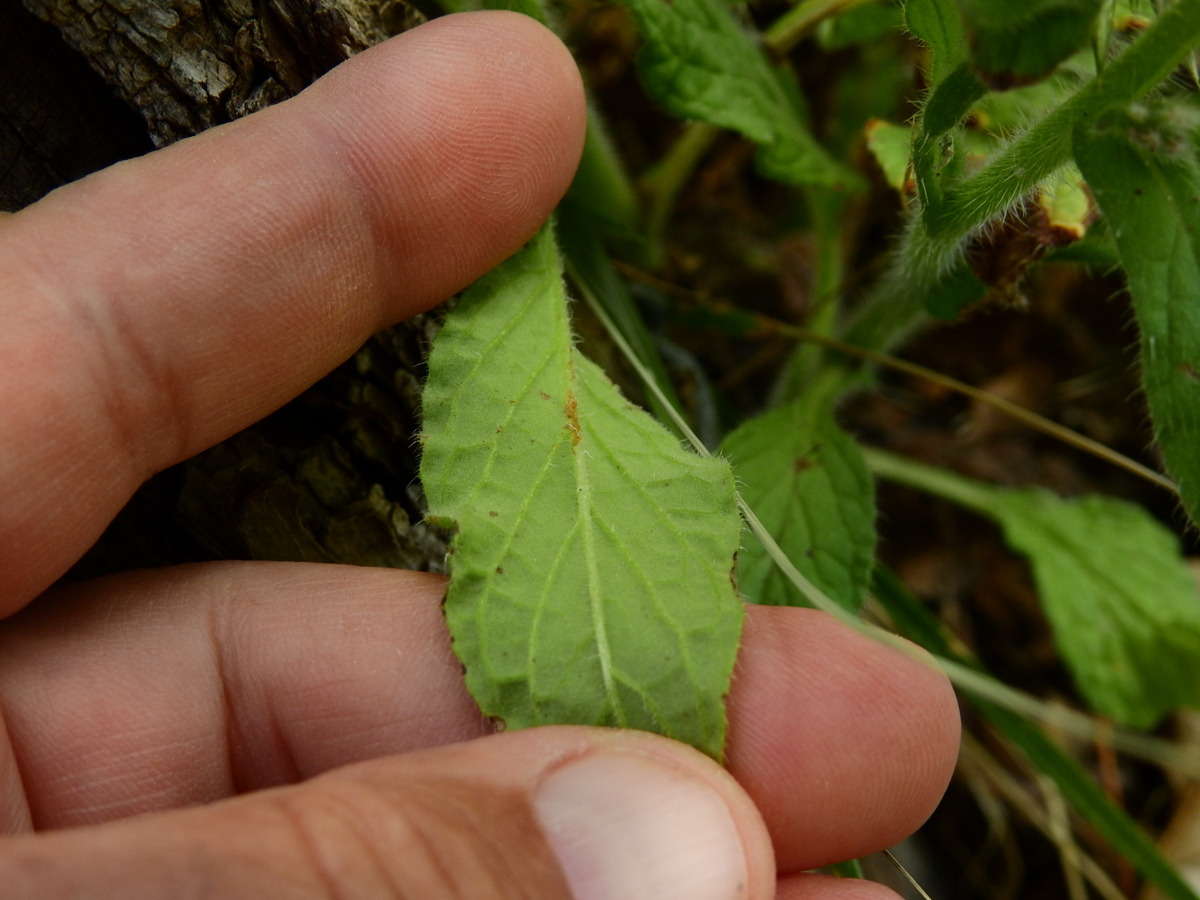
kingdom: Plantae
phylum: Tracheophyta
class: Magnoliopsida
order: Boraginales
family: Boraginaceae
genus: Borago
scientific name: Borago officinalis
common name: Borage
